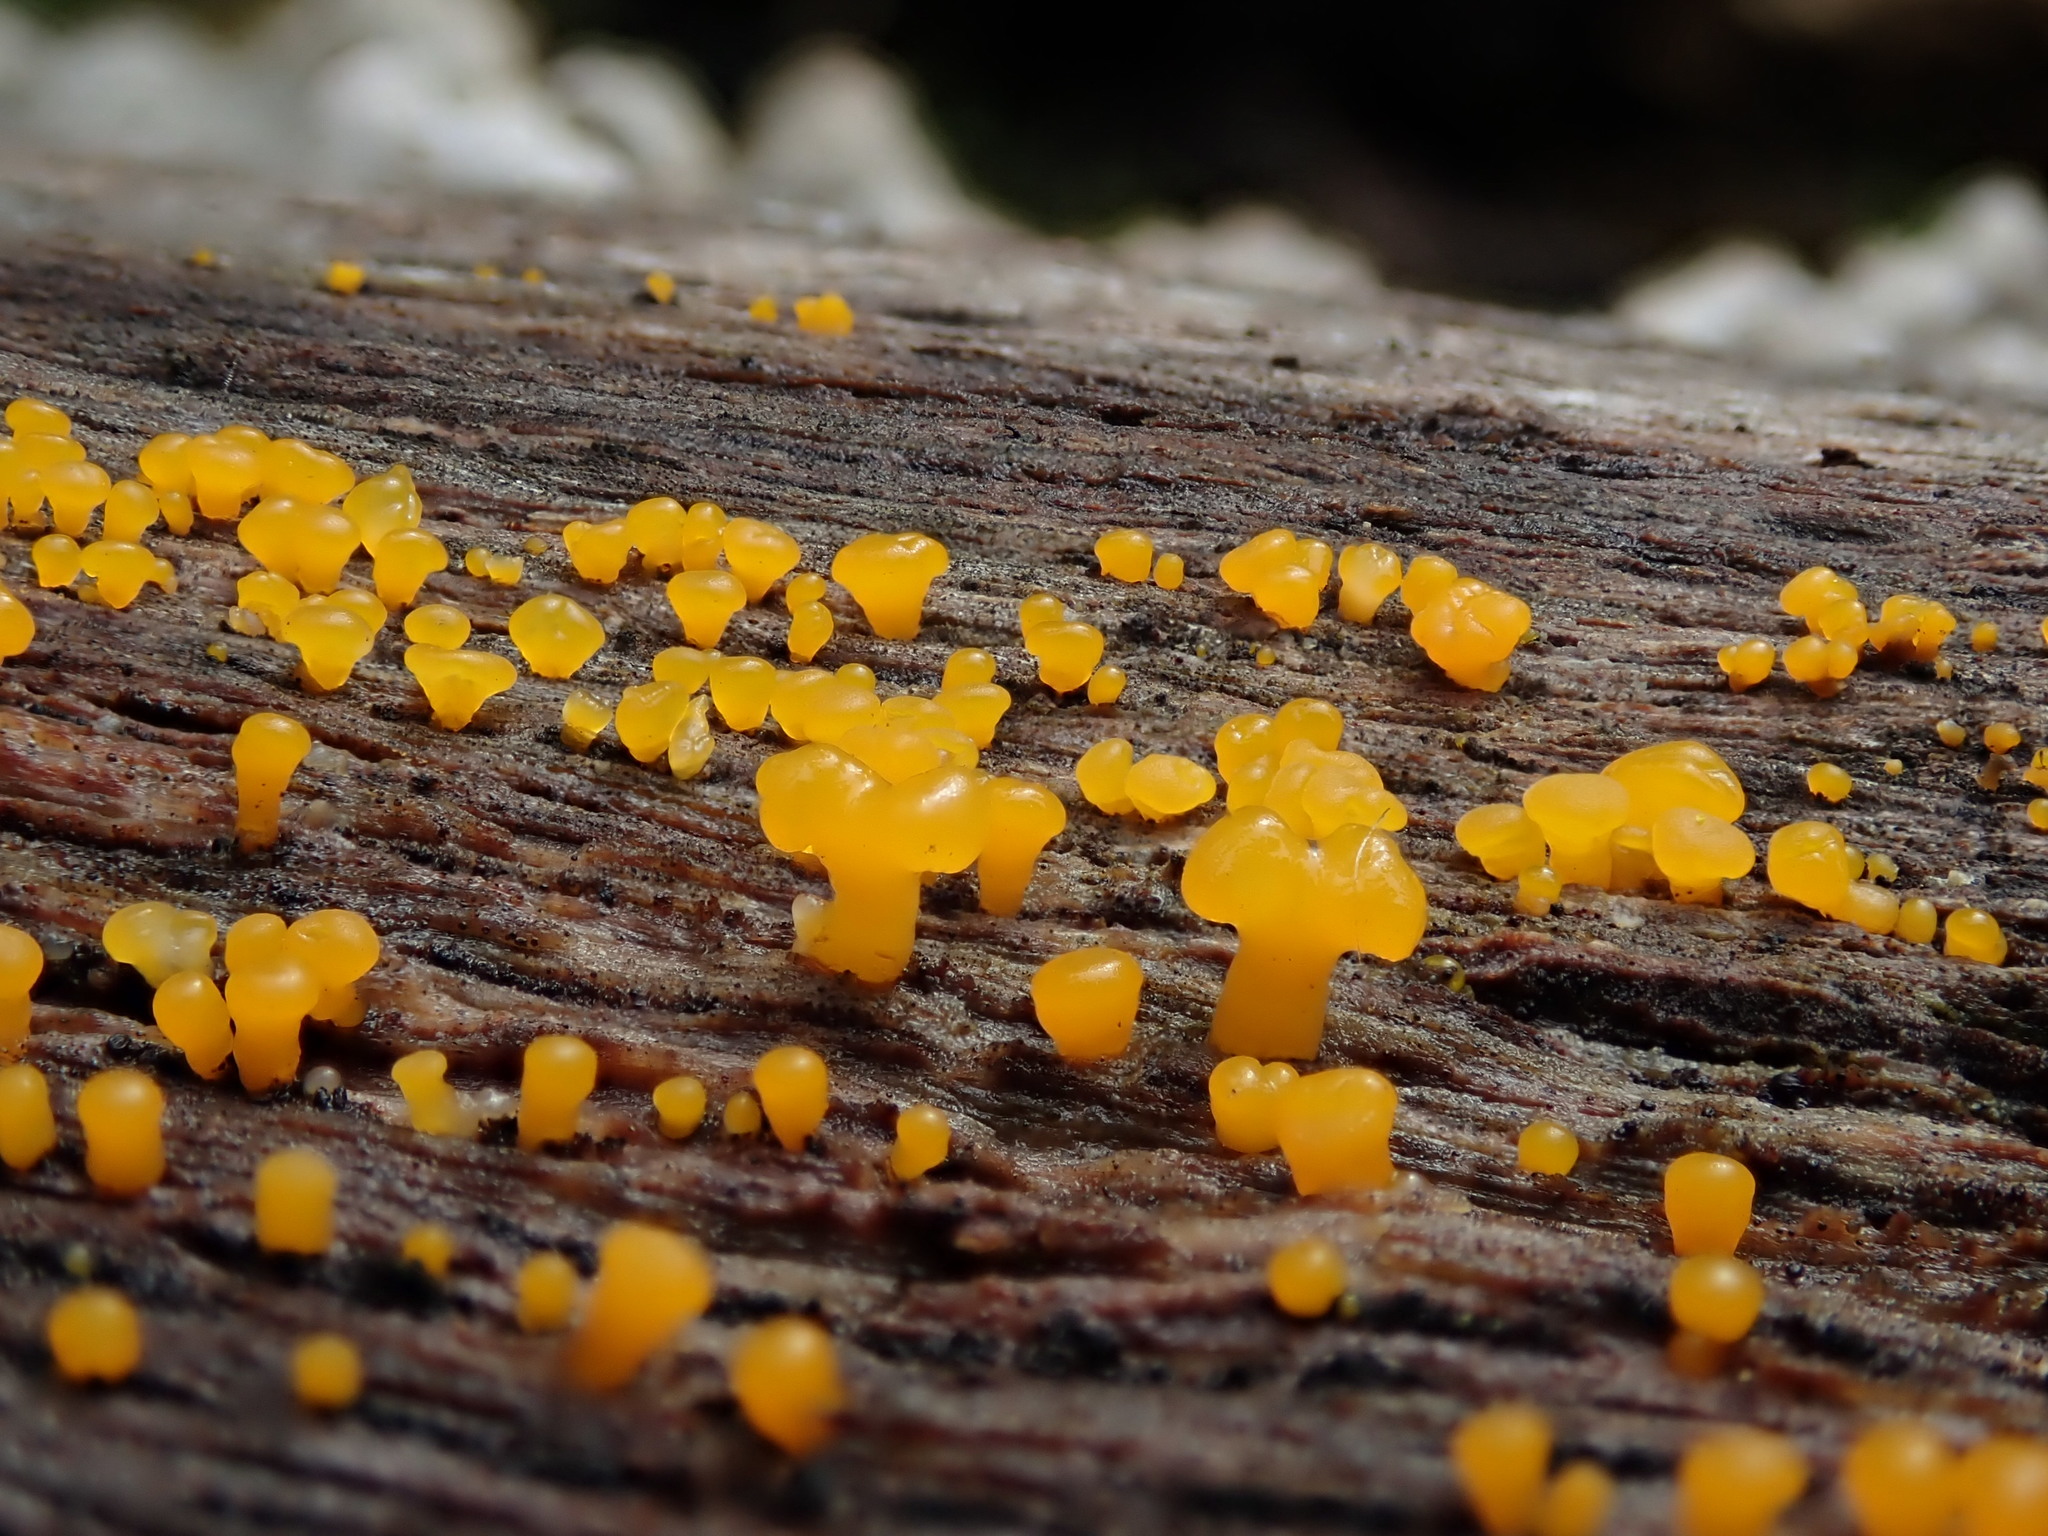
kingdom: Fungi
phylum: Basidiomycota
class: Dacrymycetes
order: Dacrymycetales
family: Dacrymycetaceae
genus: Dacrymyces
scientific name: Dacrymyces capitatus
